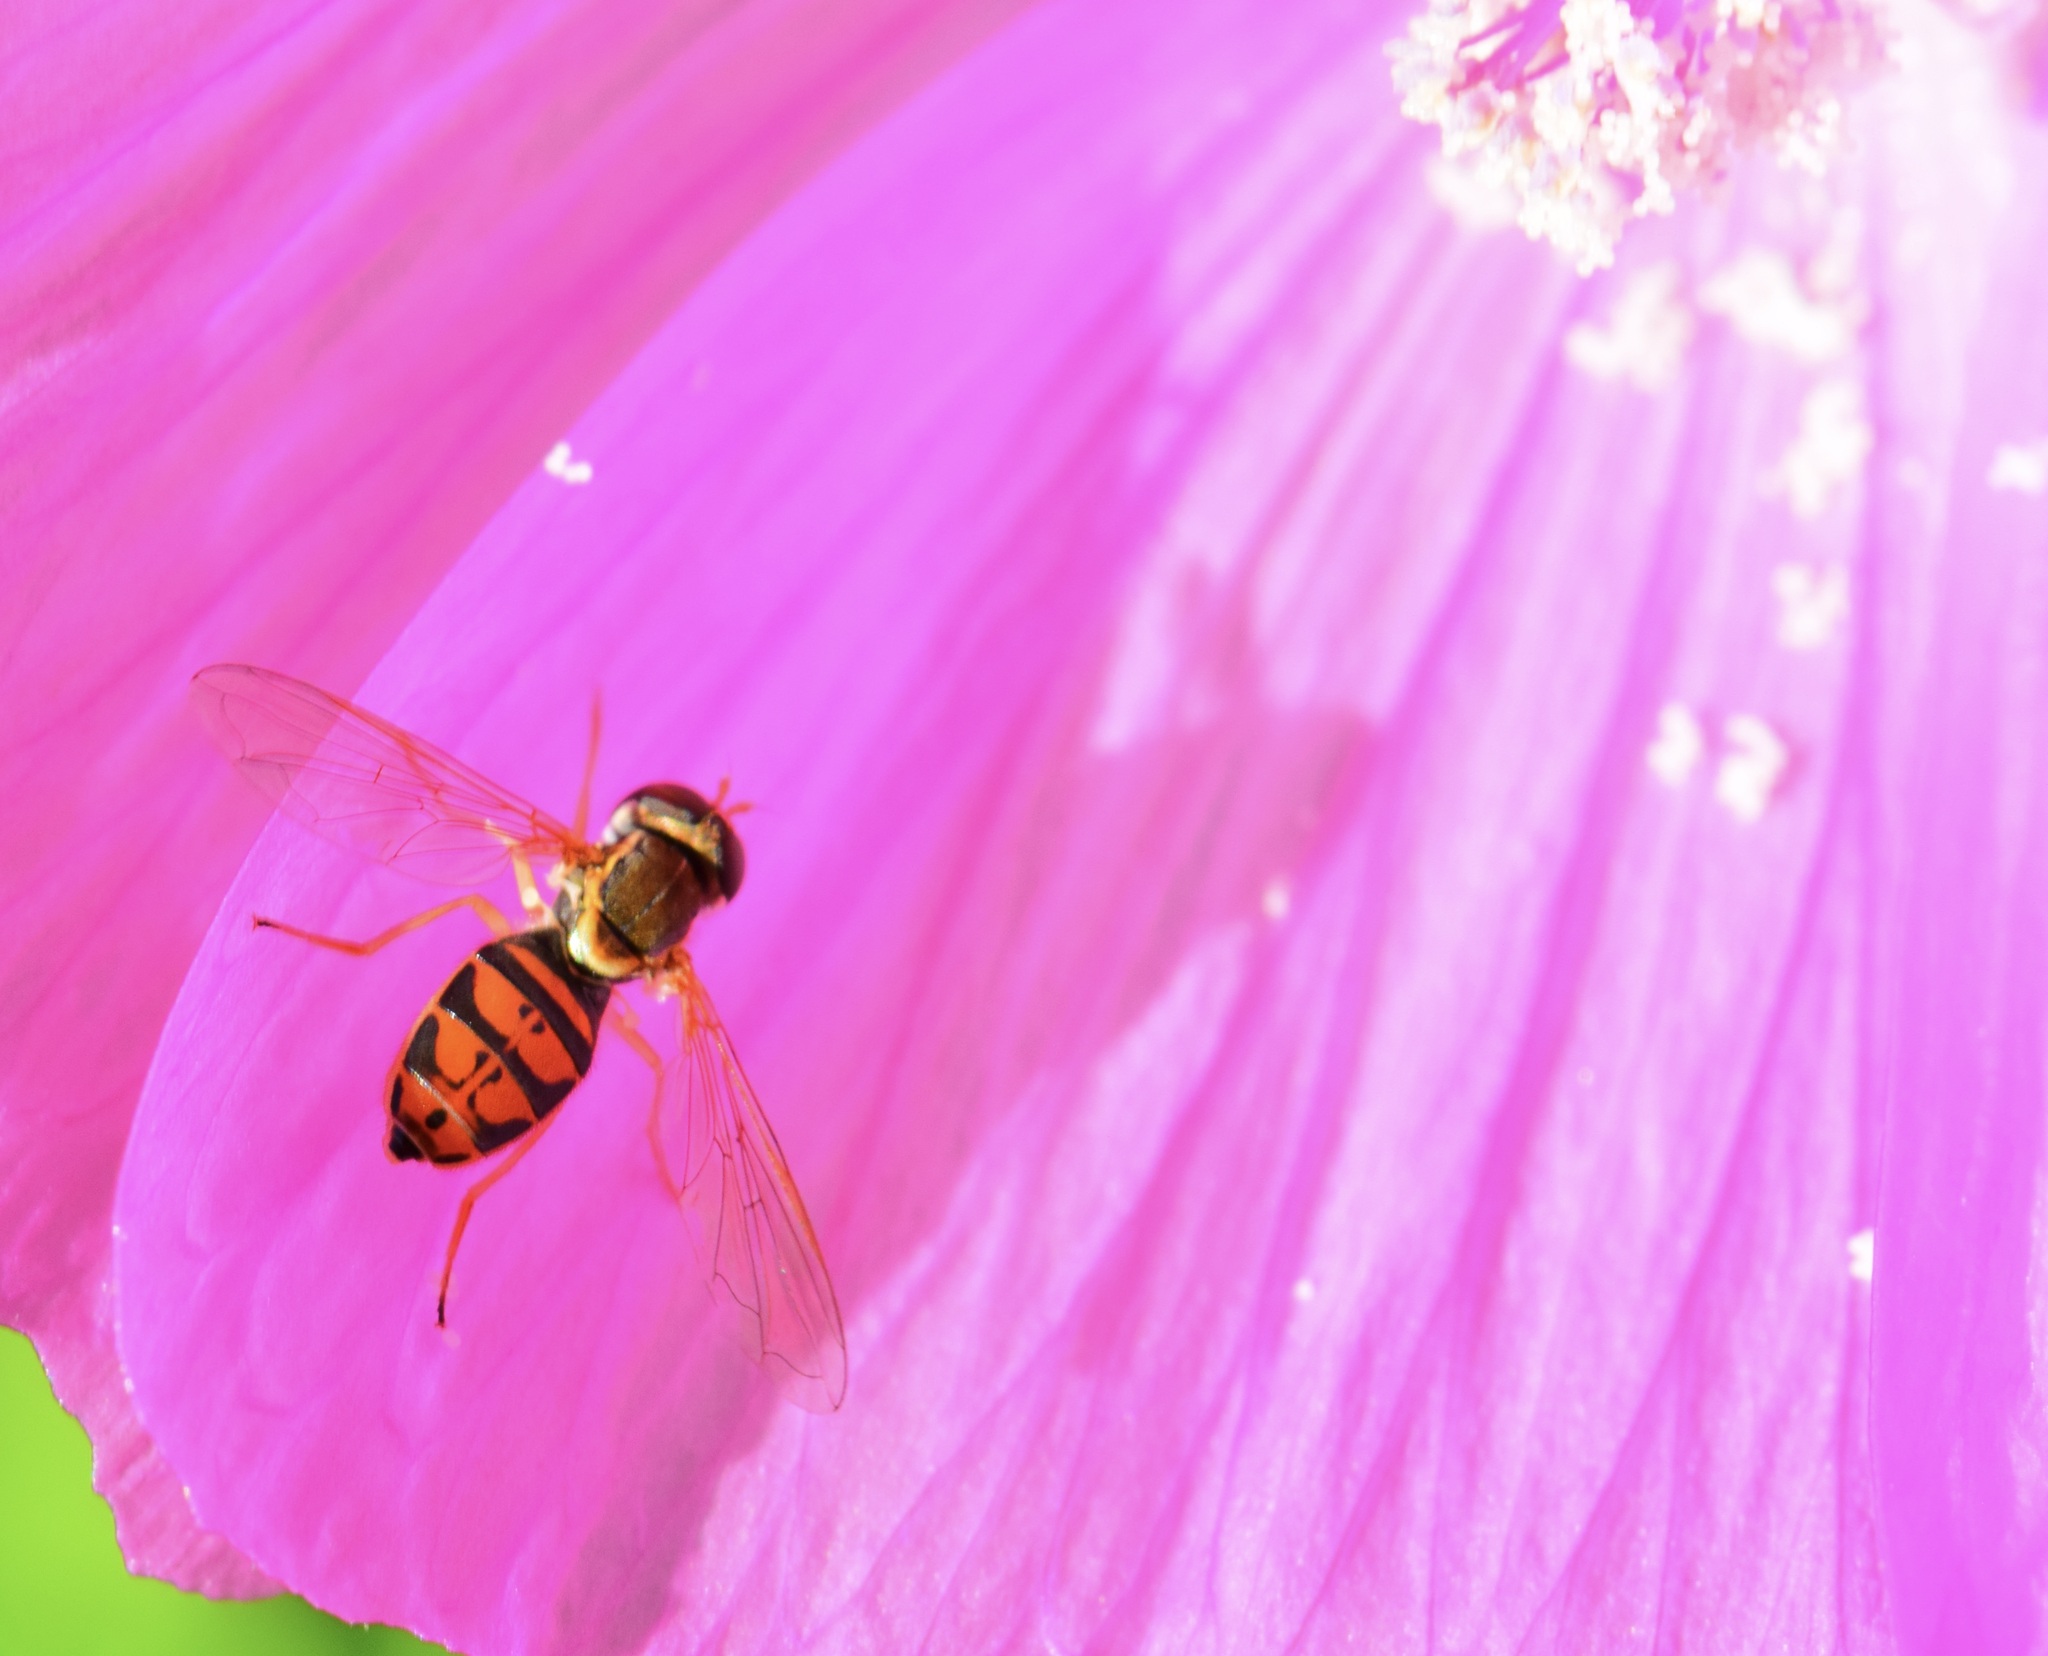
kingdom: Animalia
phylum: Arthropoda
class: Insecta
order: Diptera
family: Syrphidae
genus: Toxomerus
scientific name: Toxomerus marginatus
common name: Syrphid fly
